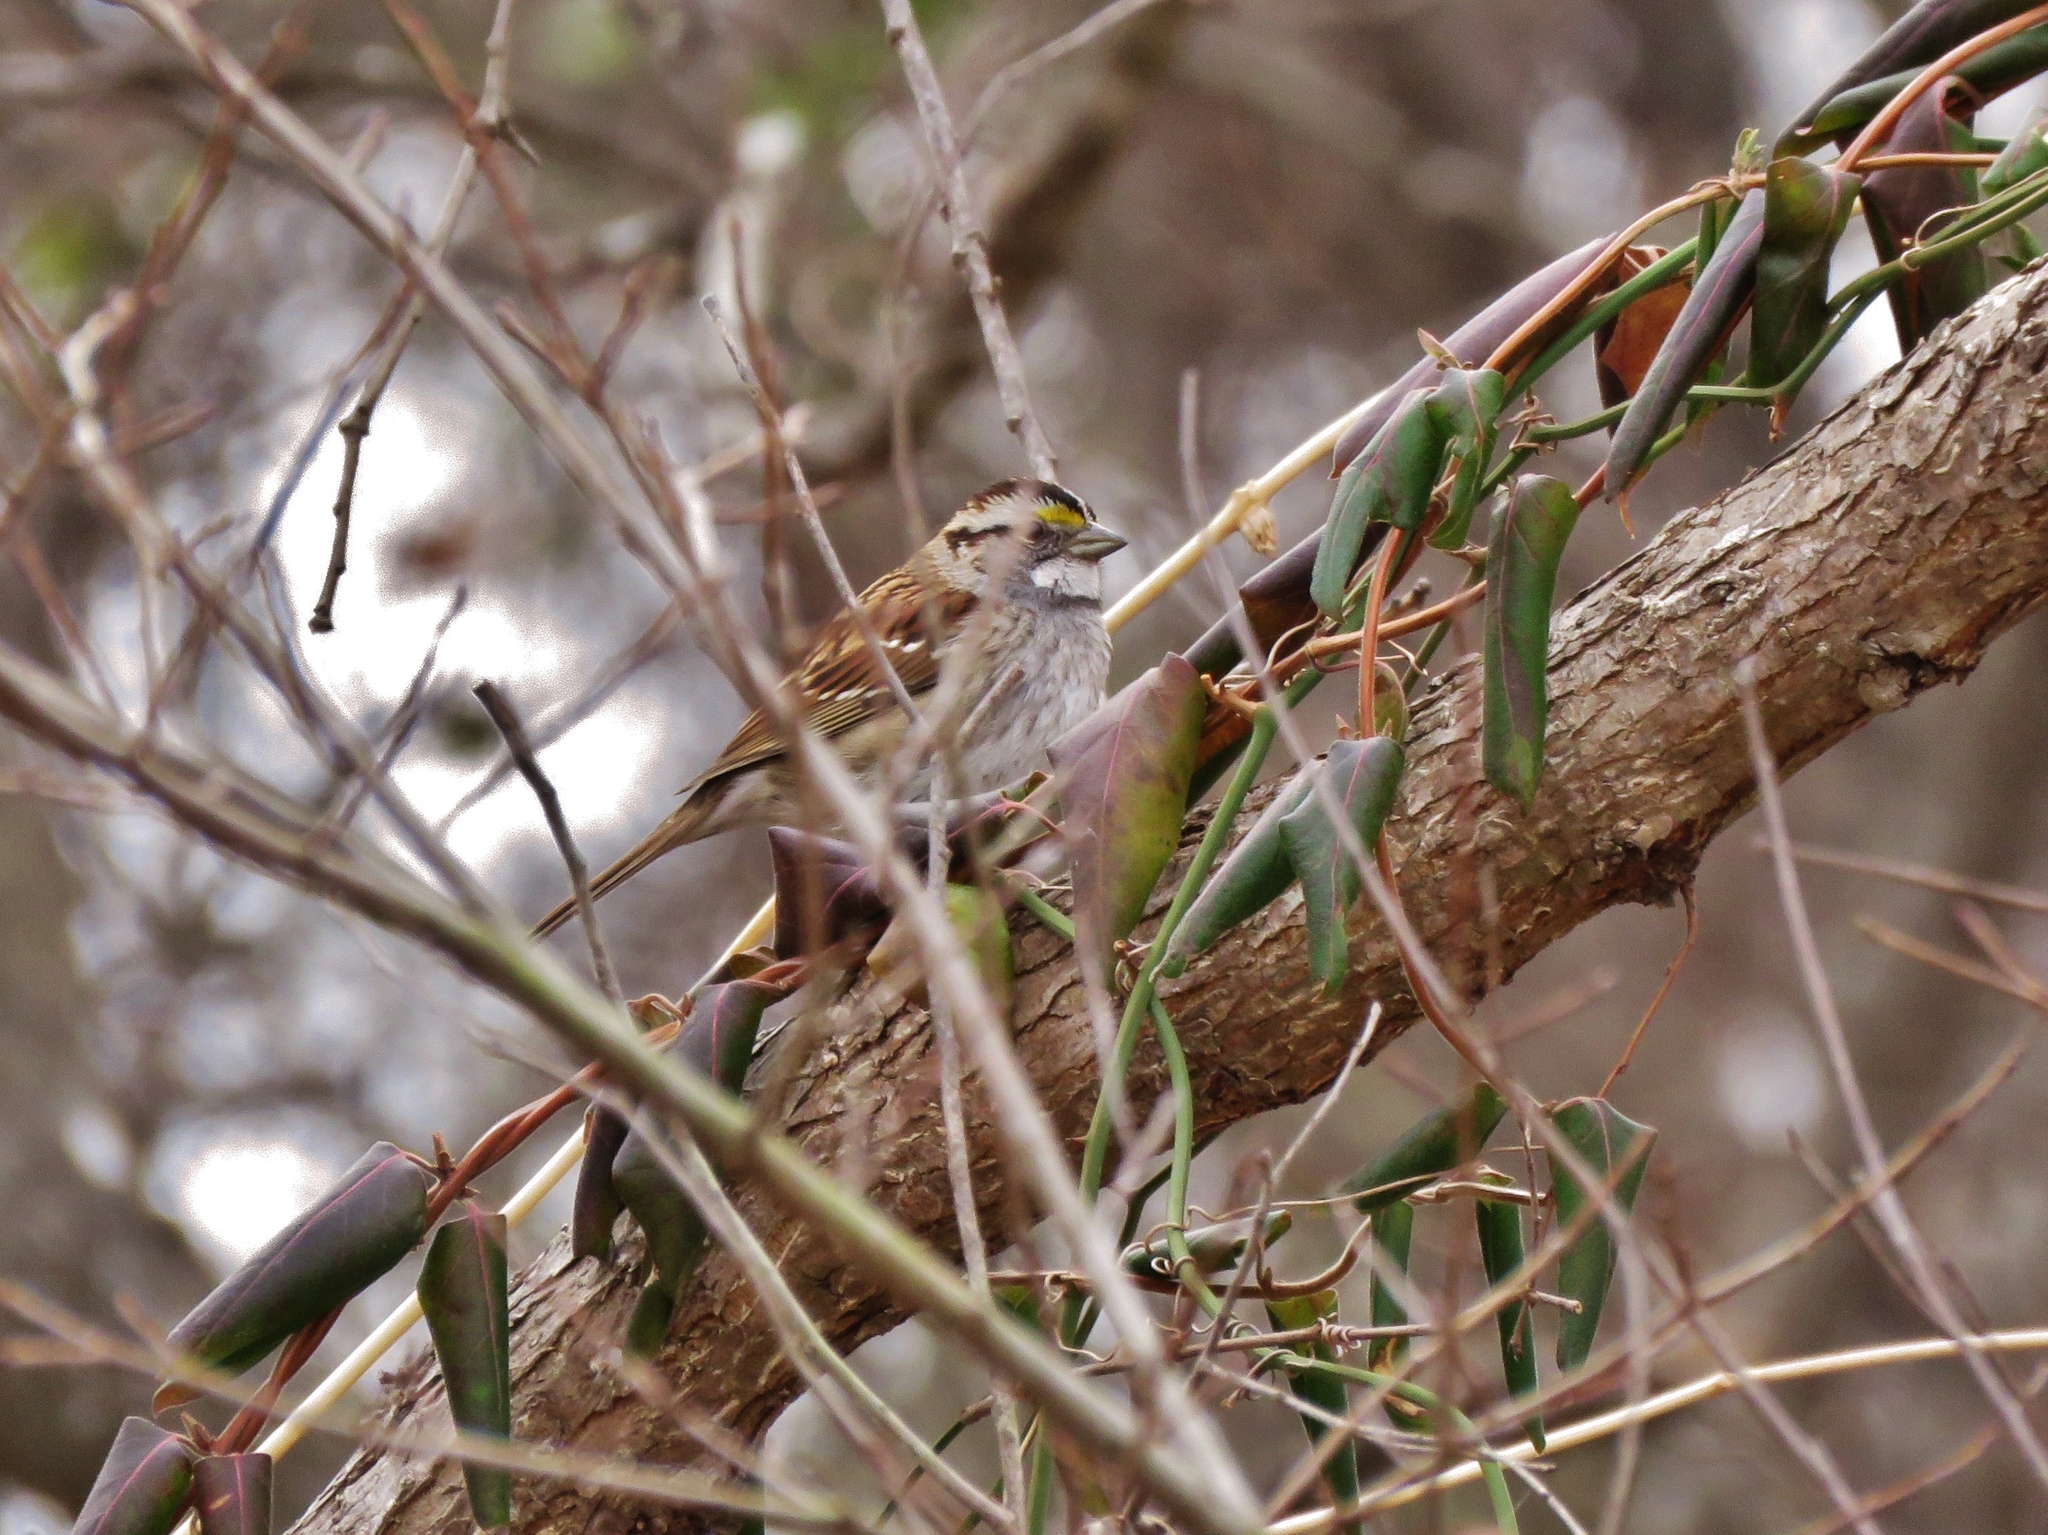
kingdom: Animalia
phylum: Chordata
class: Aves
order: Passeriformes
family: Passerellidae
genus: Zonotrichia
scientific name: Zonotrichia albicollis
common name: White-throated sparrow
